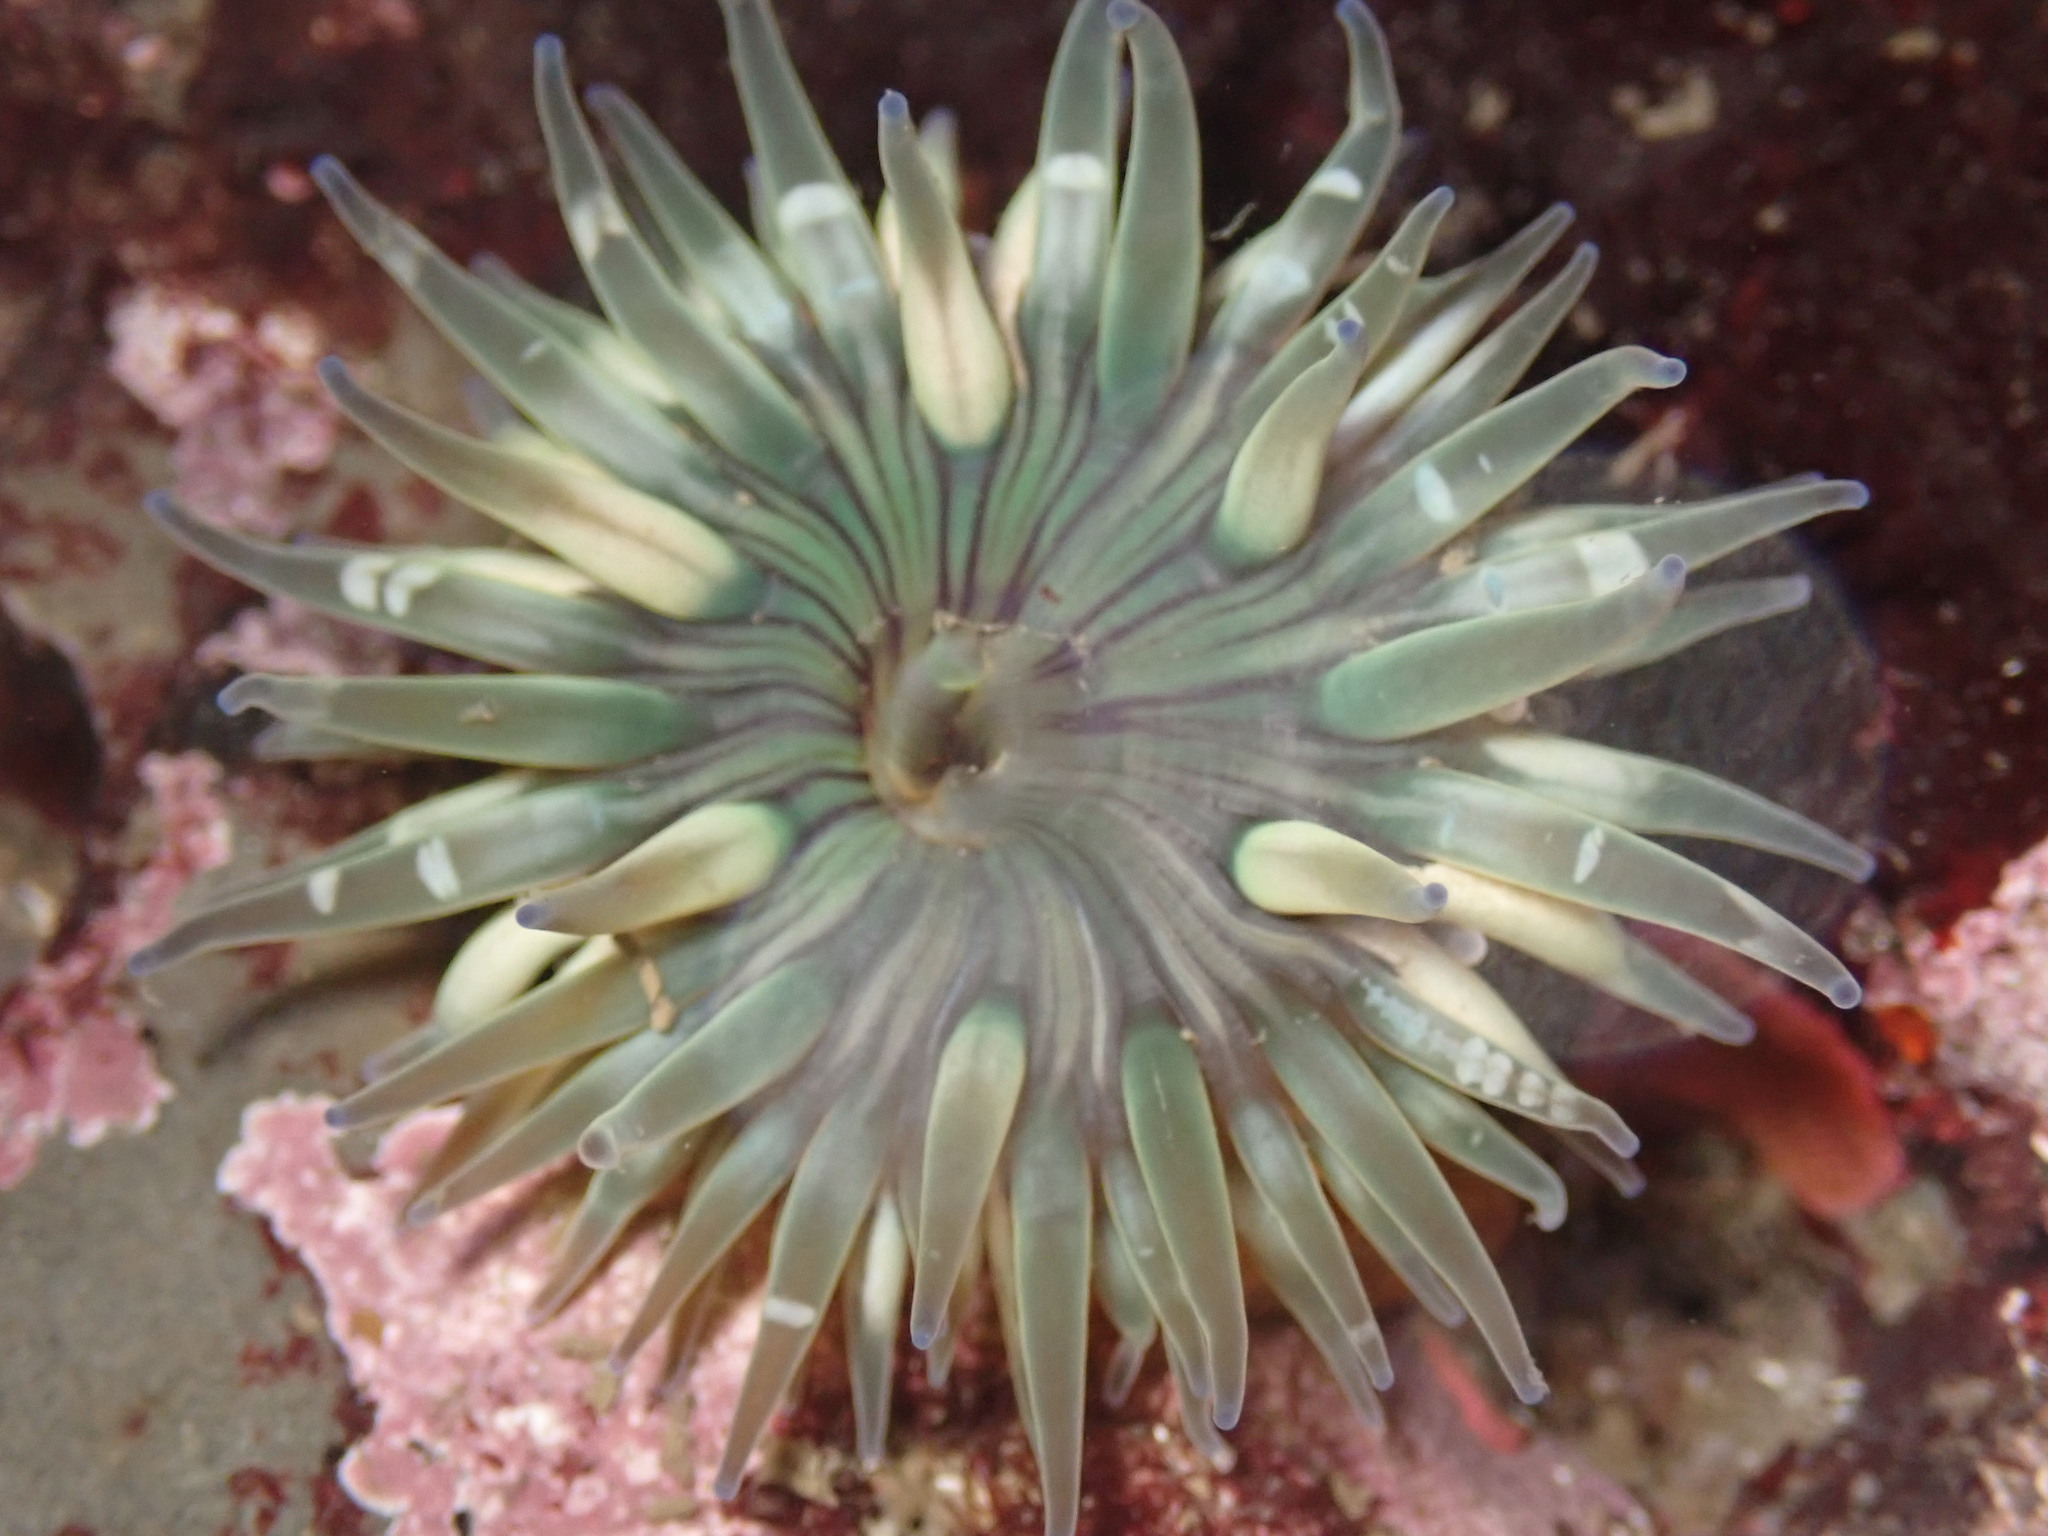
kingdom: Animalia
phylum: Cnidaria
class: Anthozoa
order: Actiniaria
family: Actiniidae
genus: Anthopleura
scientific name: Anthopleura sola
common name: Sun anemone
